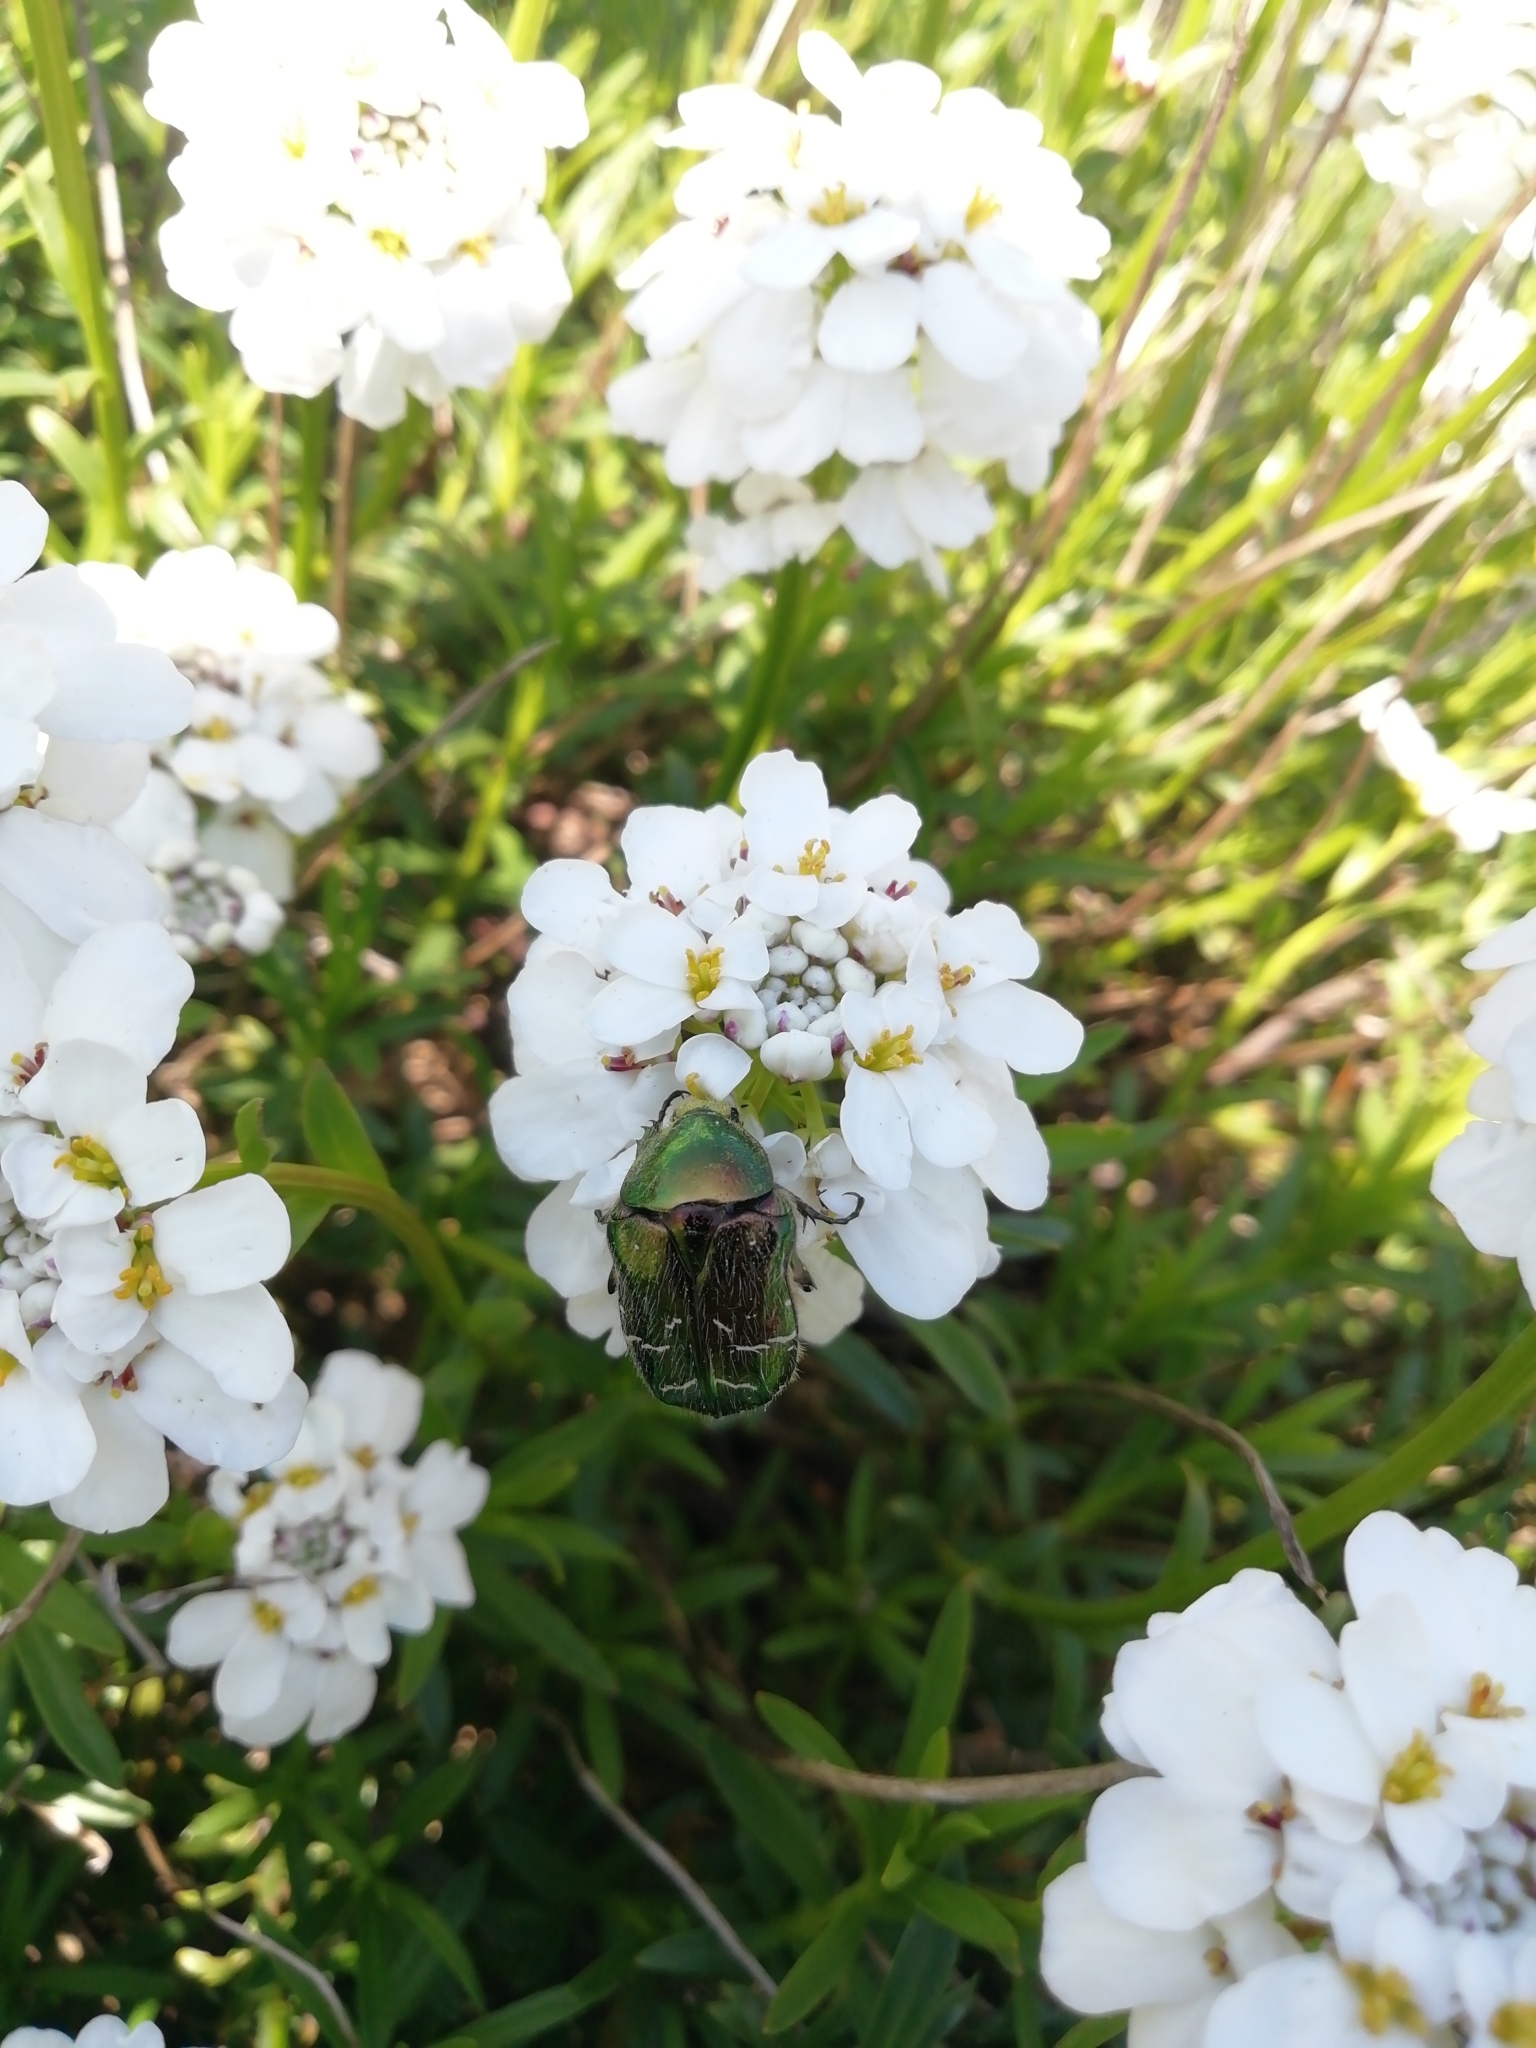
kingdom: Animalia
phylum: Arthropoda
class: Insecta
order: Coleoptera
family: Scarabaeidae
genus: Cetonia
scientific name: Cetonia aurata
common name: Rose chafer
